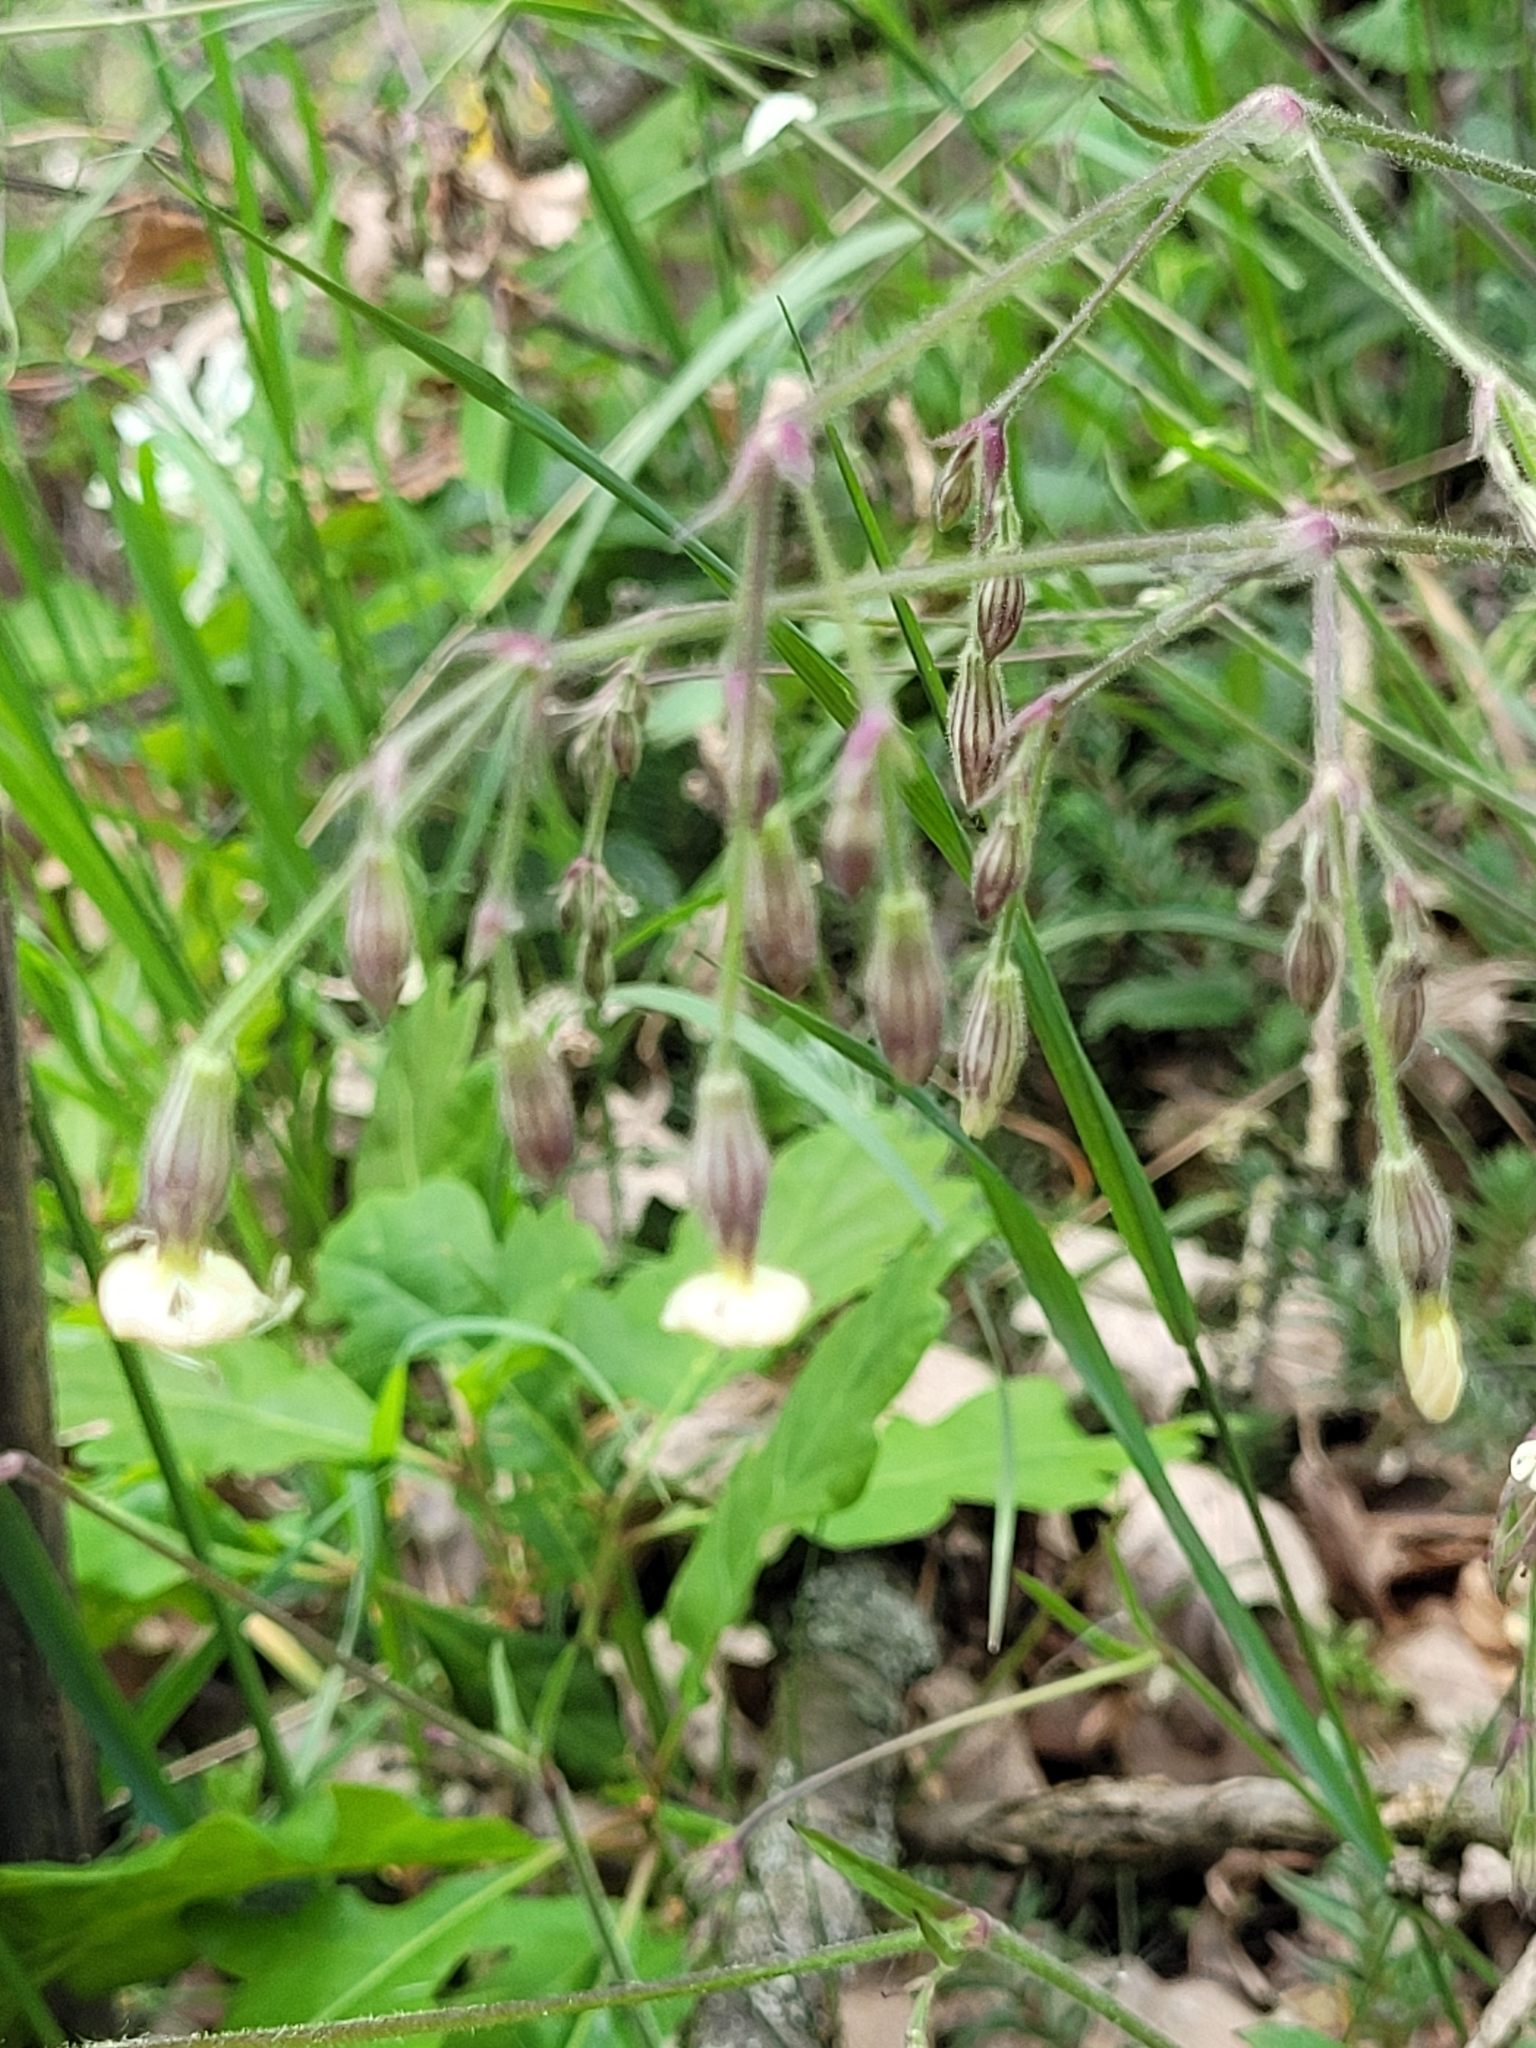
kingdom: Plantae
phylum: Tracheophyta
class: Magnoliopsida
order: Caryophyllales
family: Caryophyllaceae
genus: Silene
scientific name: Silene nutans
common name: Nottingham catchfly
